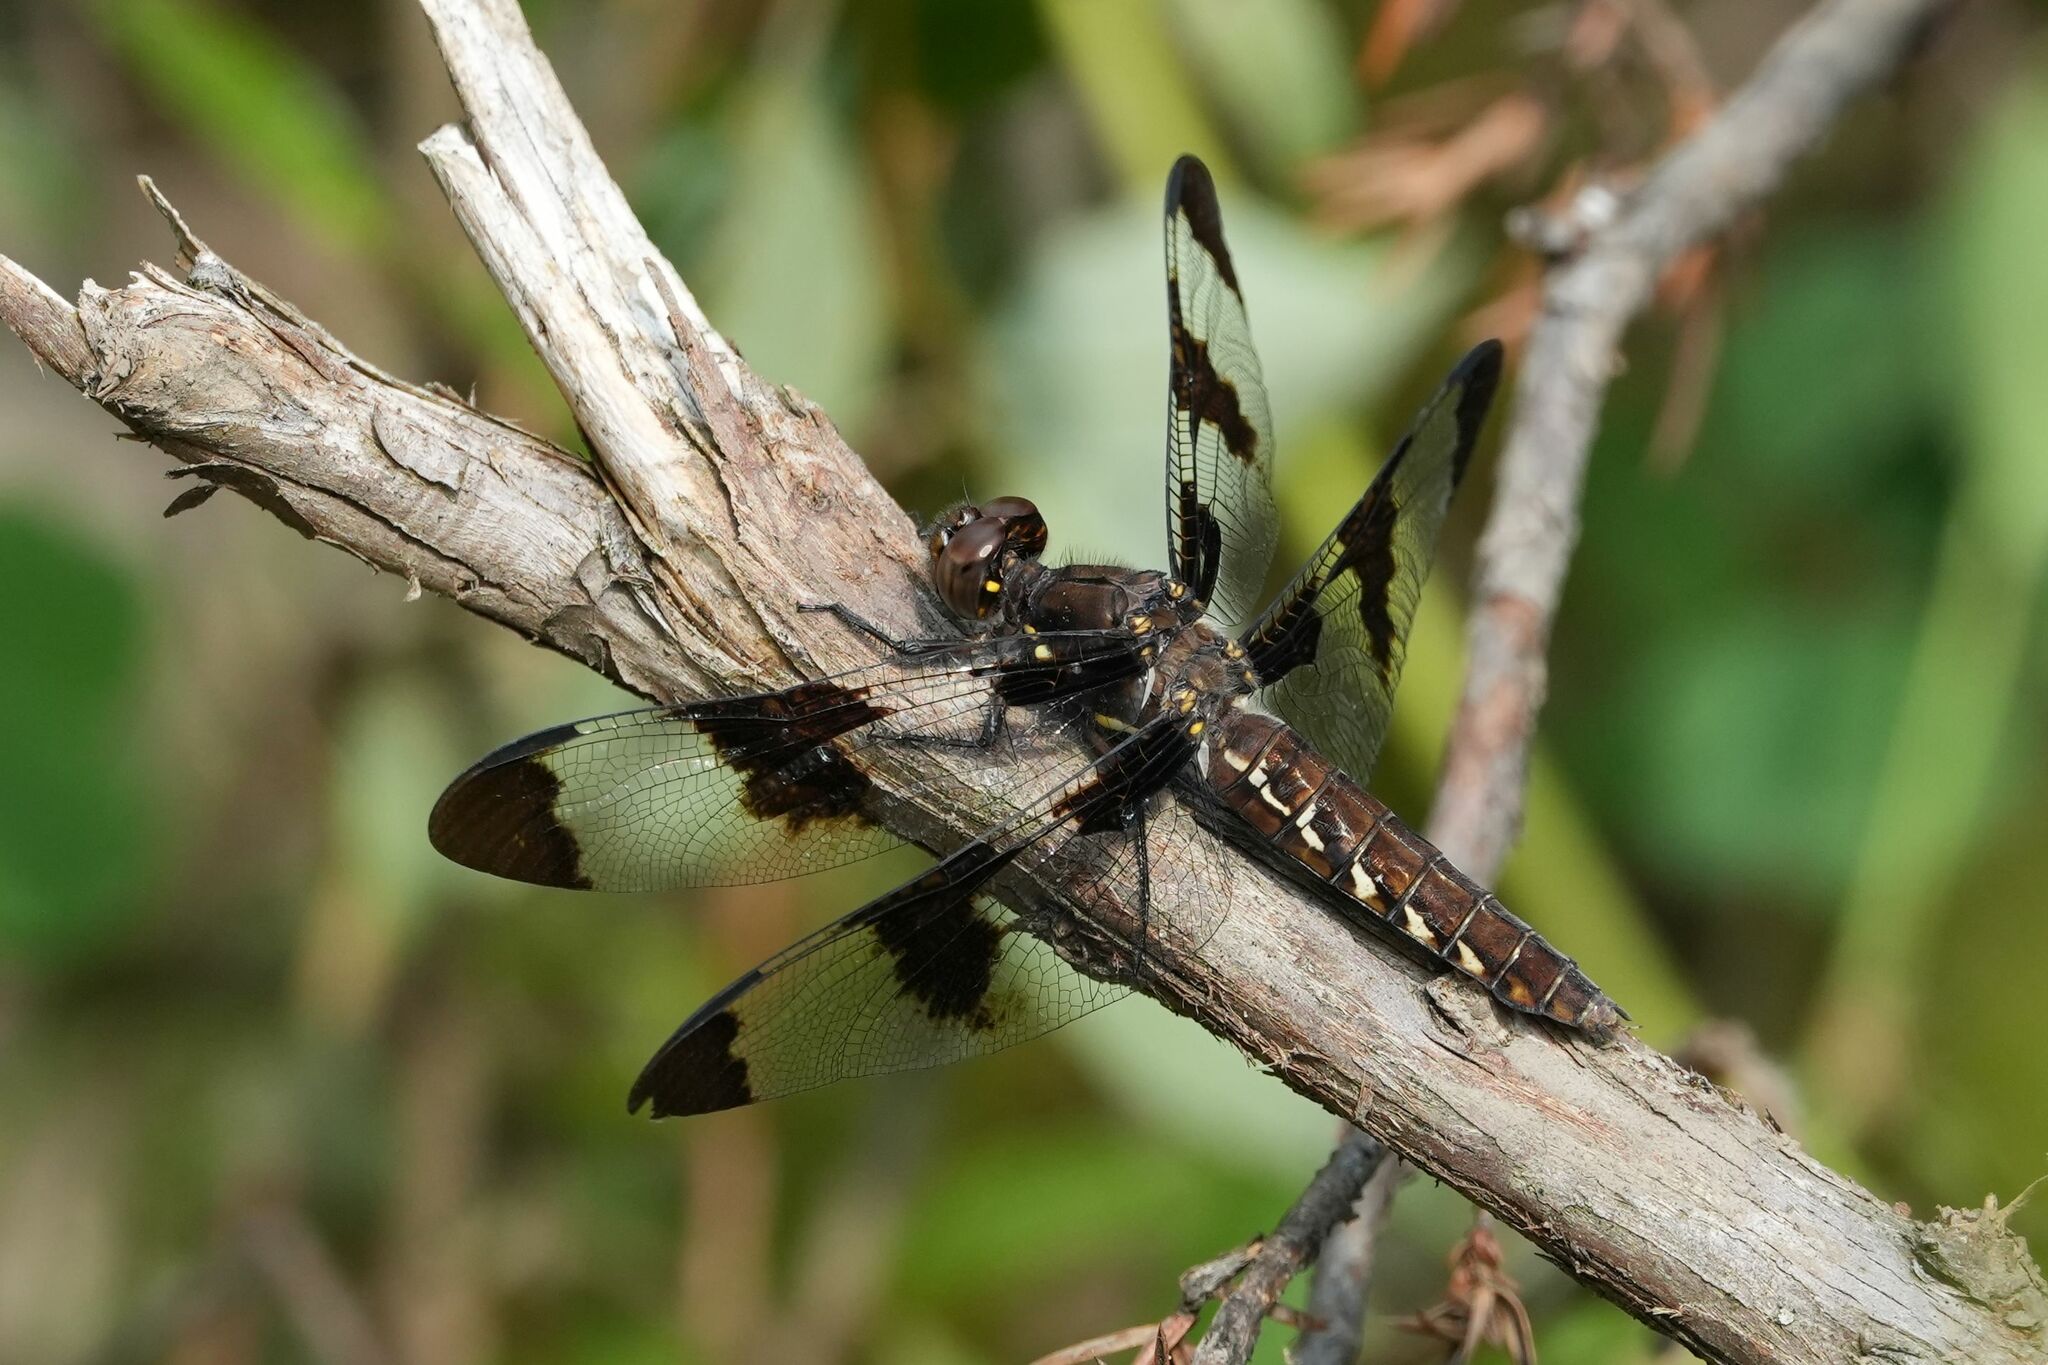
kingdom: Animalia
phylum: Arthropoda
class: Insecta
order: Odonata
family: Libellulidae
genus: Plathemis
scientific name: Plathemis lydia
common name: Common whitetail
